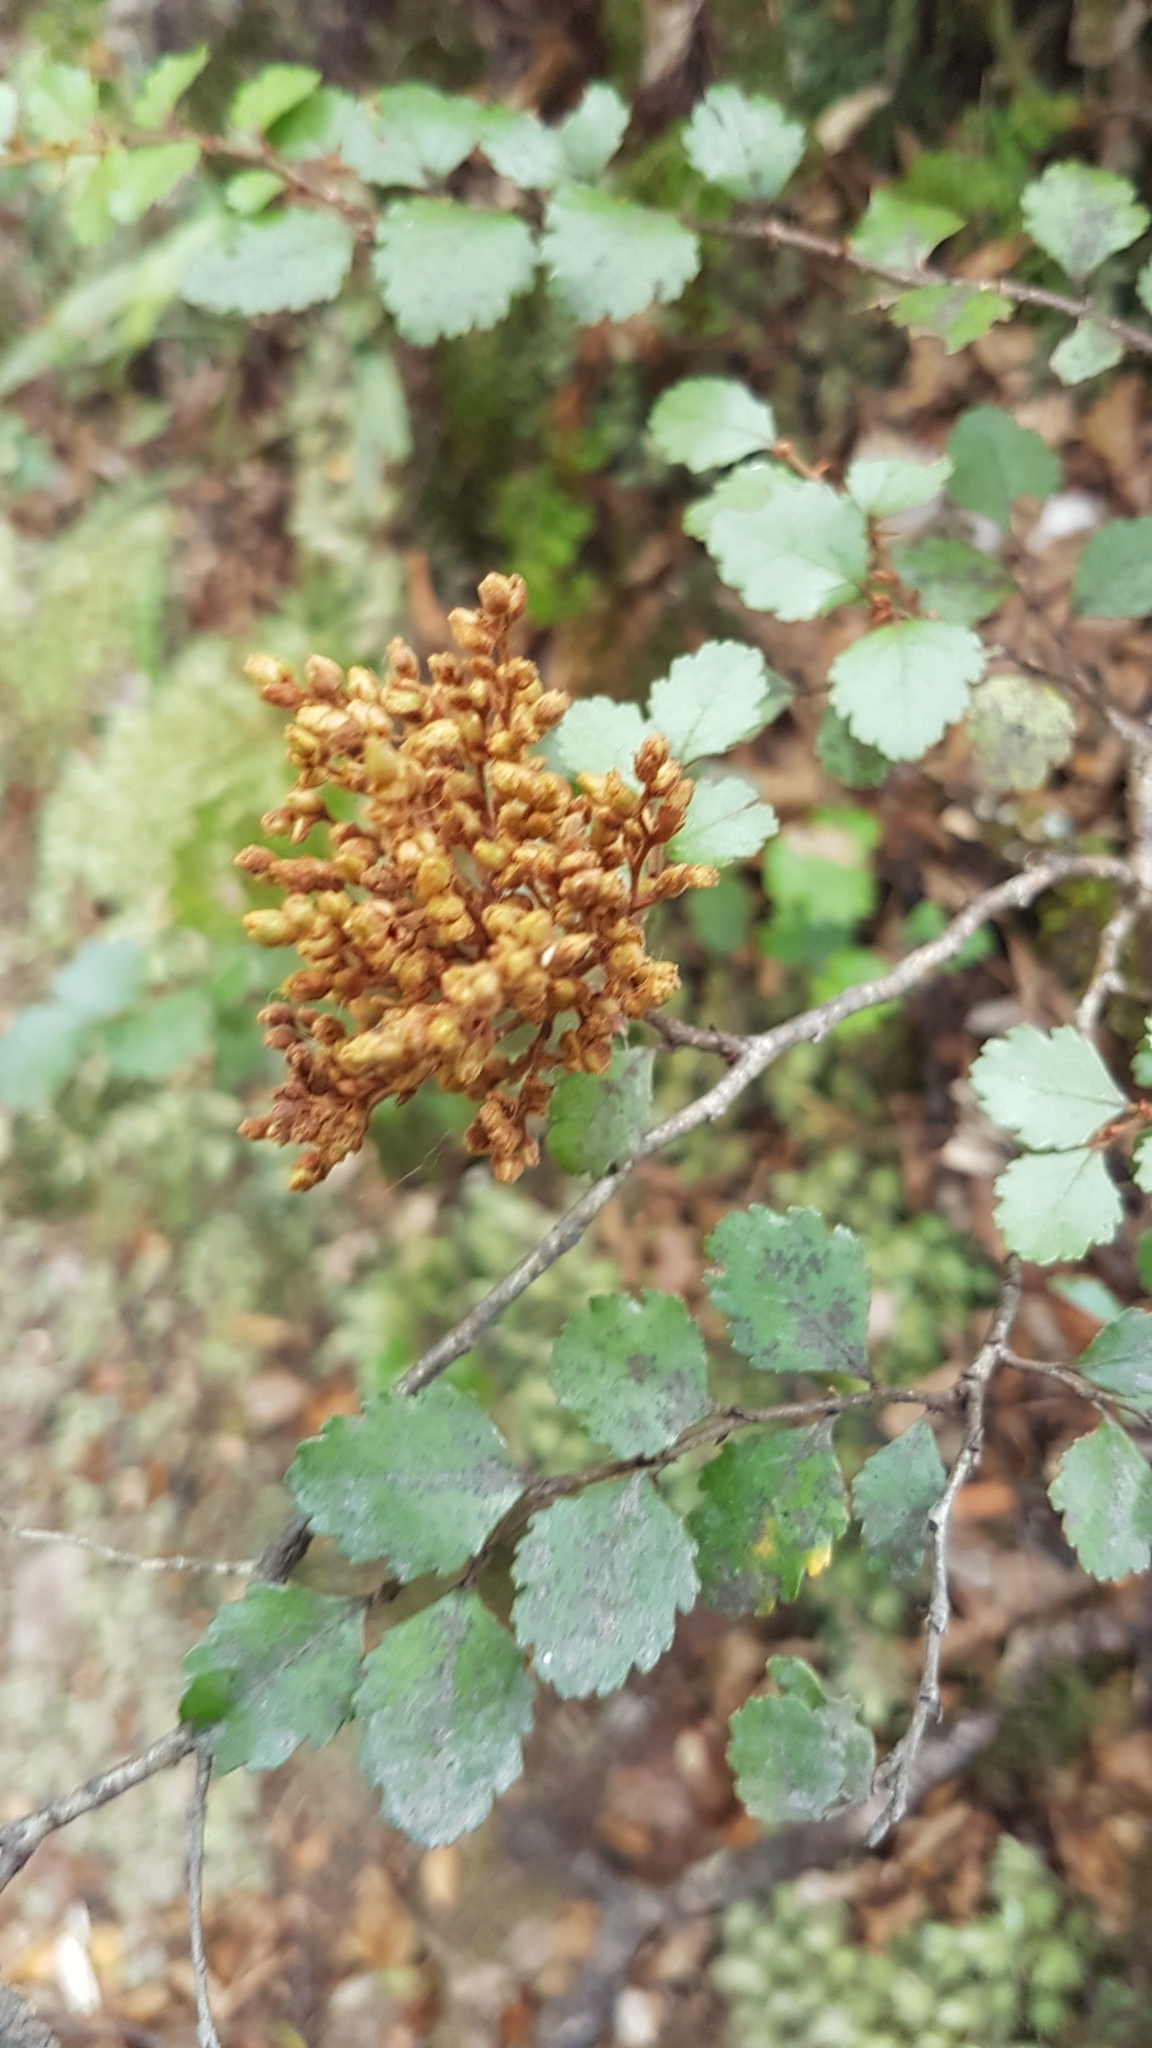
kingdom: Plantae
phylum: Tracheophyta
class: Magnoliopsida
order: Fagales
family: Nothofagaceae
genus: Nothofagus
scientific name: Nothofagus menziesii
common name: Silver beech
